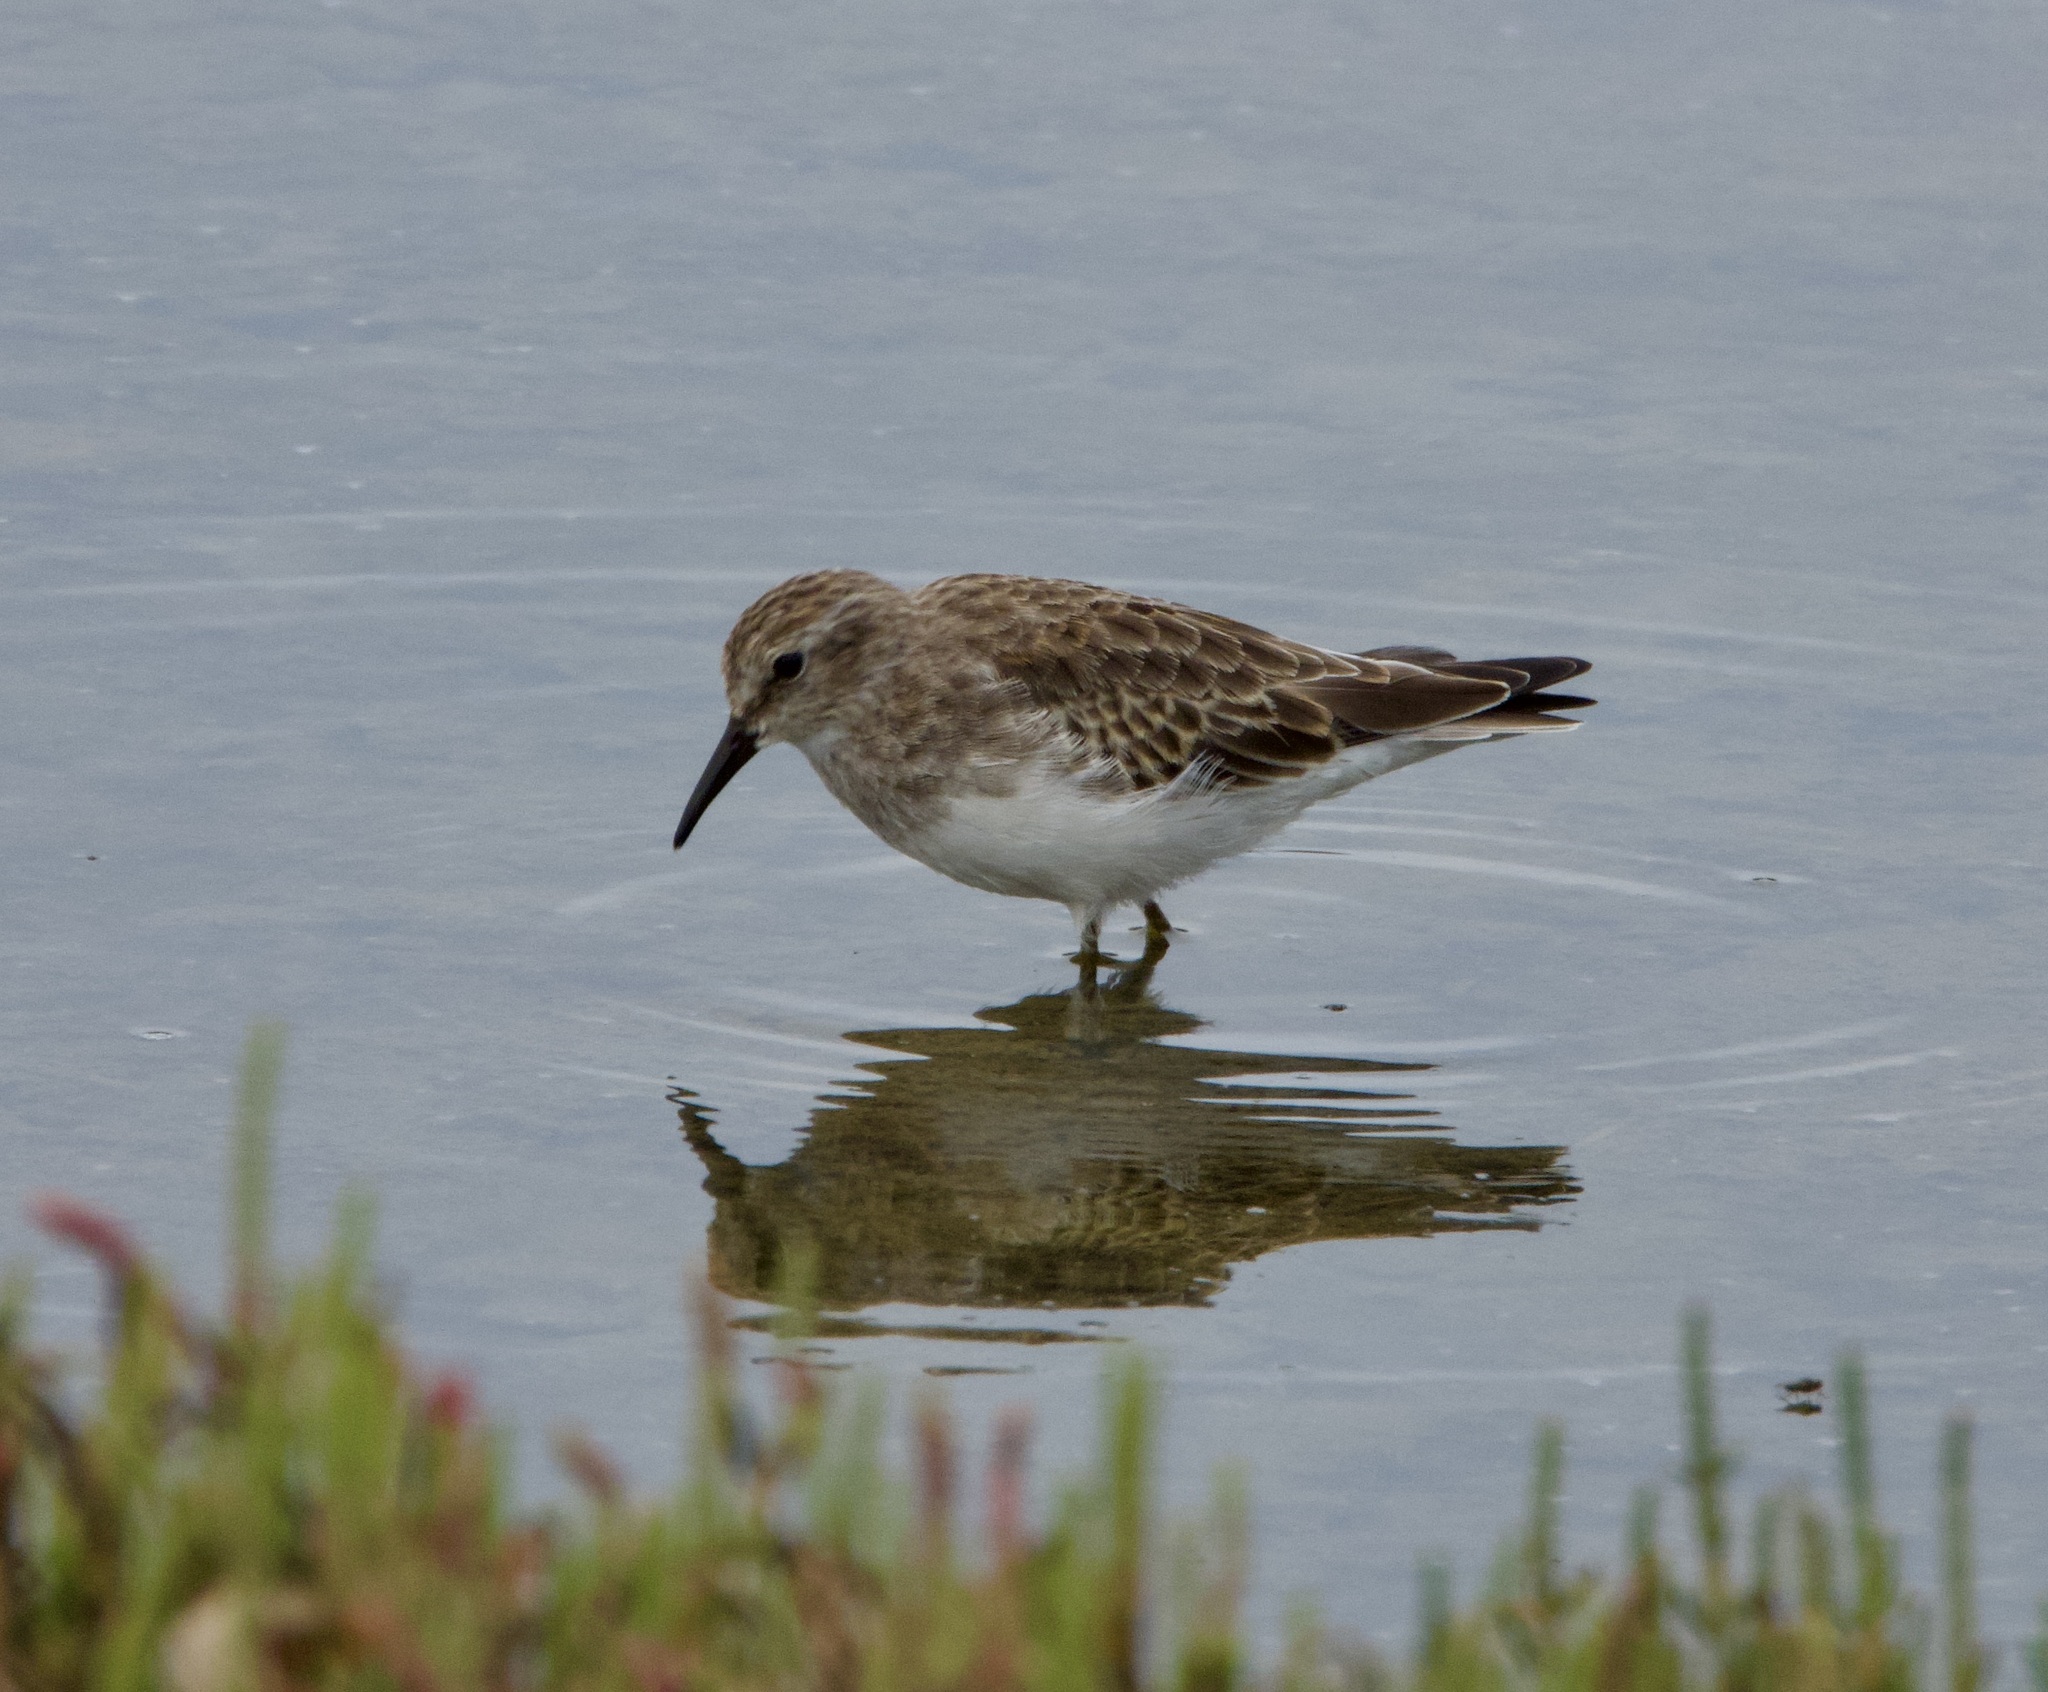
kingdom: Animalia
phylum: Chordata
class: Aves
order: Charadriiformes
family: Scolopacidae
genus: Calidris
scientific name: Calidris minutilla
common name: Least sandpiper
